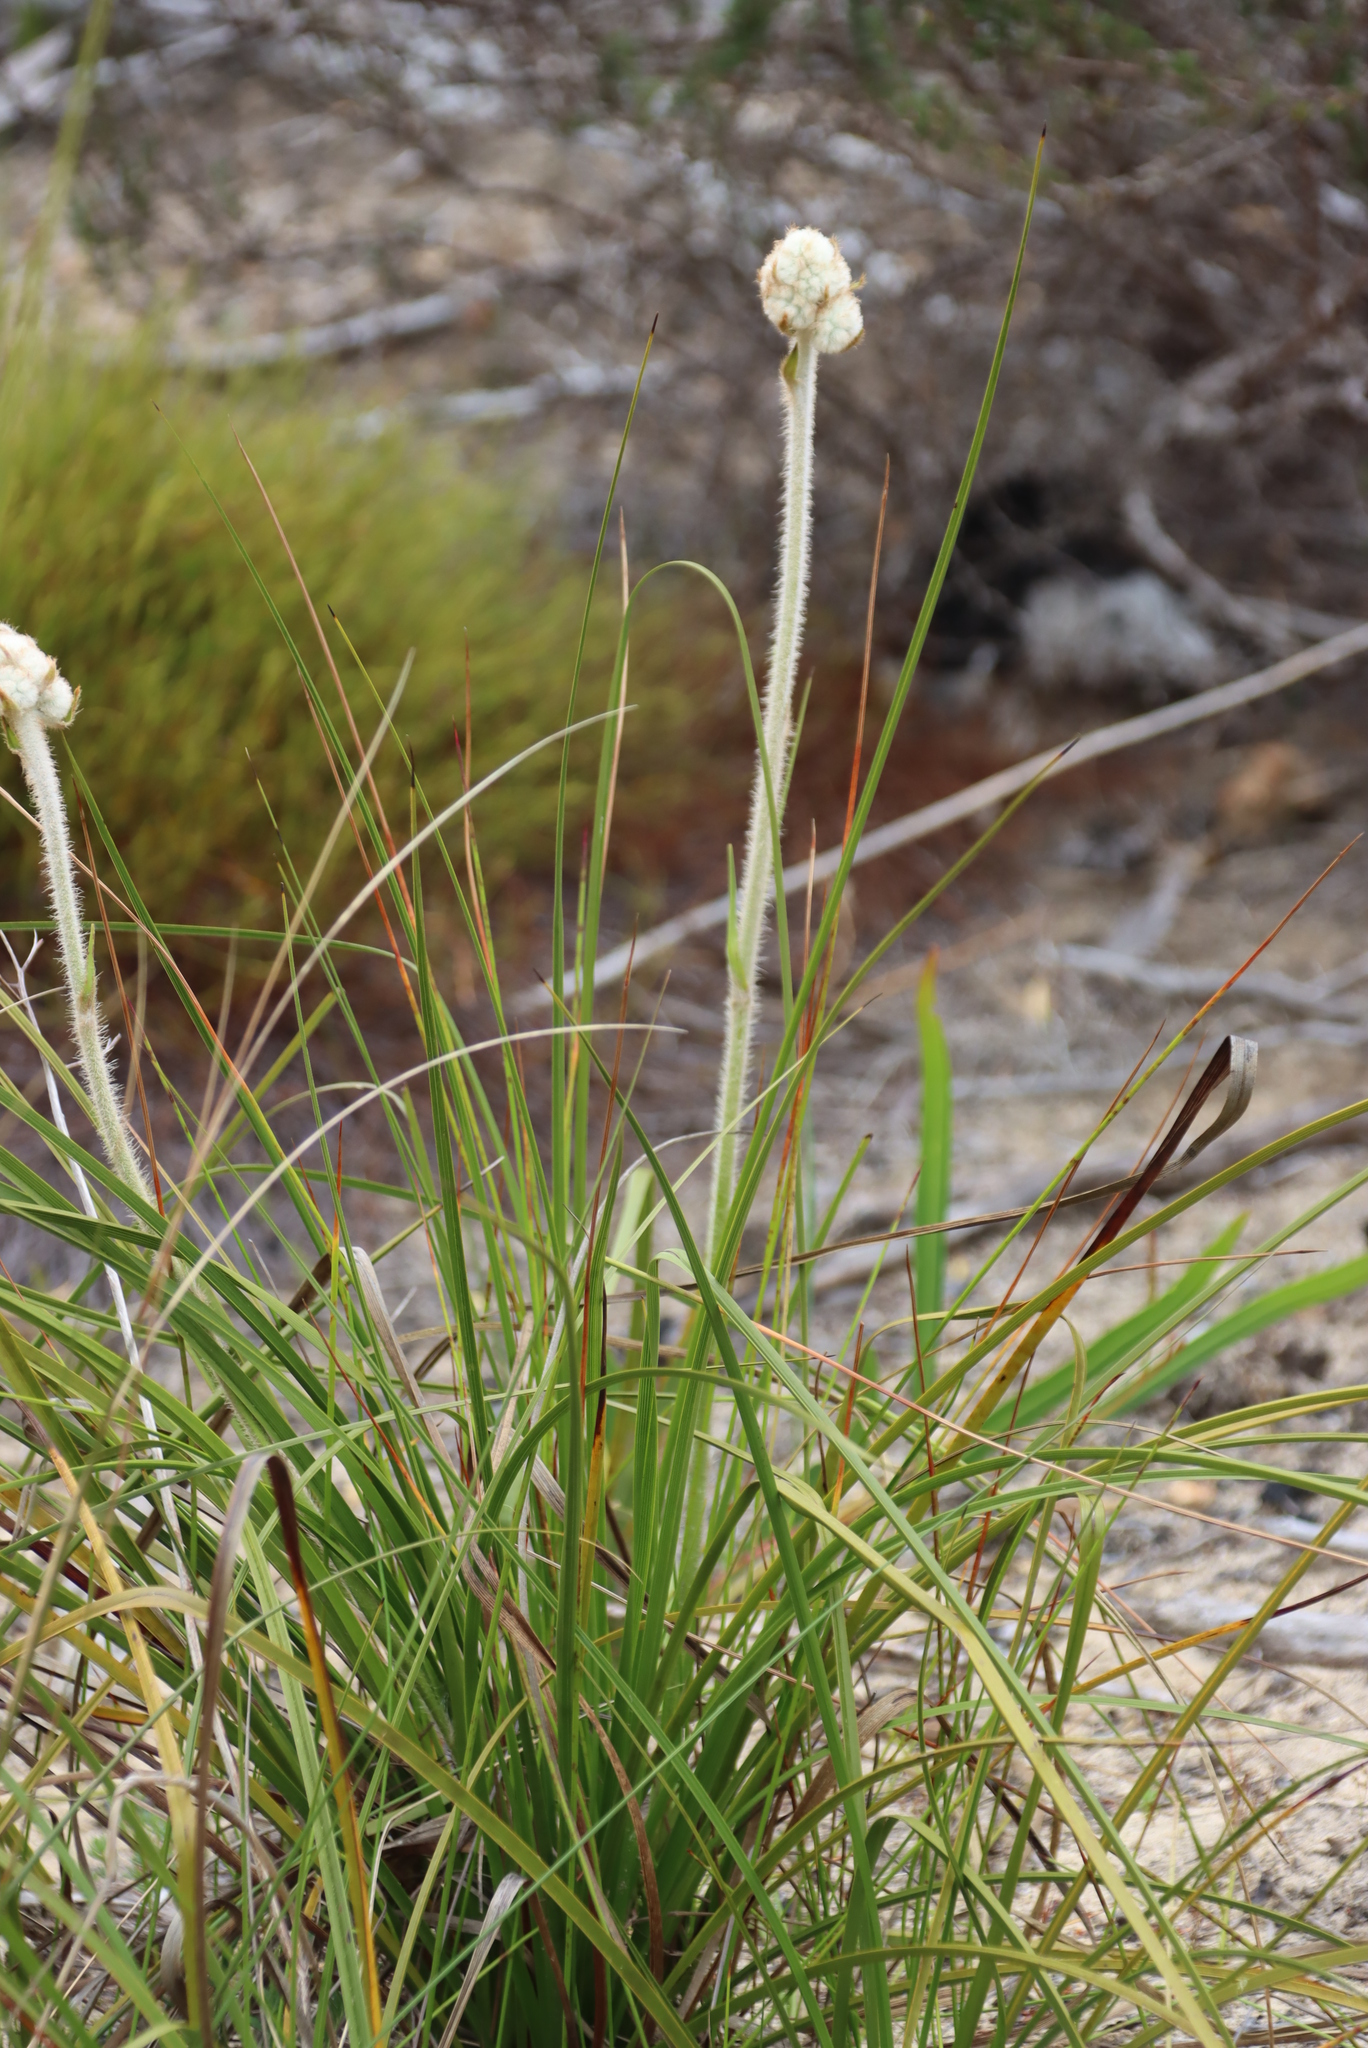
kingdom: Plantae
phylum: Tracheophyta
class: Liliopsida
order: Asparagales
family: Lanariaceae
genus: Lanaria
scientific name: Lanaria lanata
